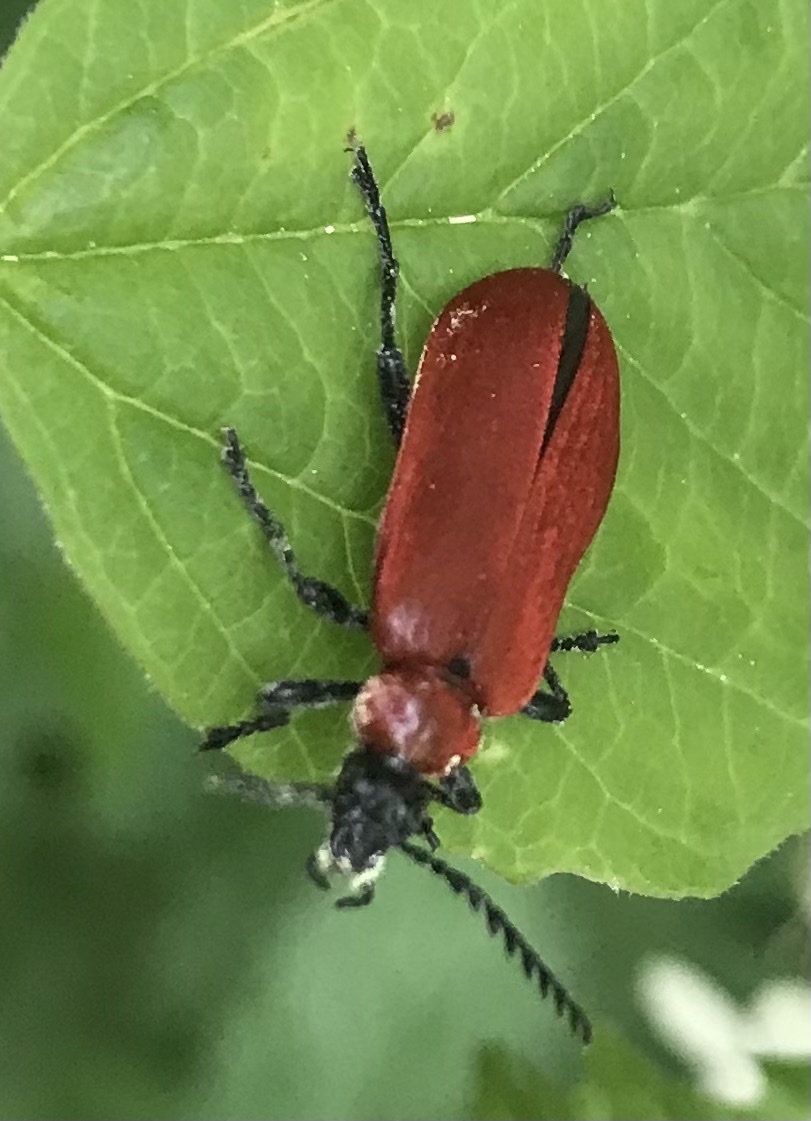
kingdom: Animalia
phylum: Arthropoda
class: Insecta
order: Coleoptera
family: Pyrochroidae
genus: Pyrochroa
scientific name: Pyrochroa coccinea
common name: Black-headed cardinal beetle
